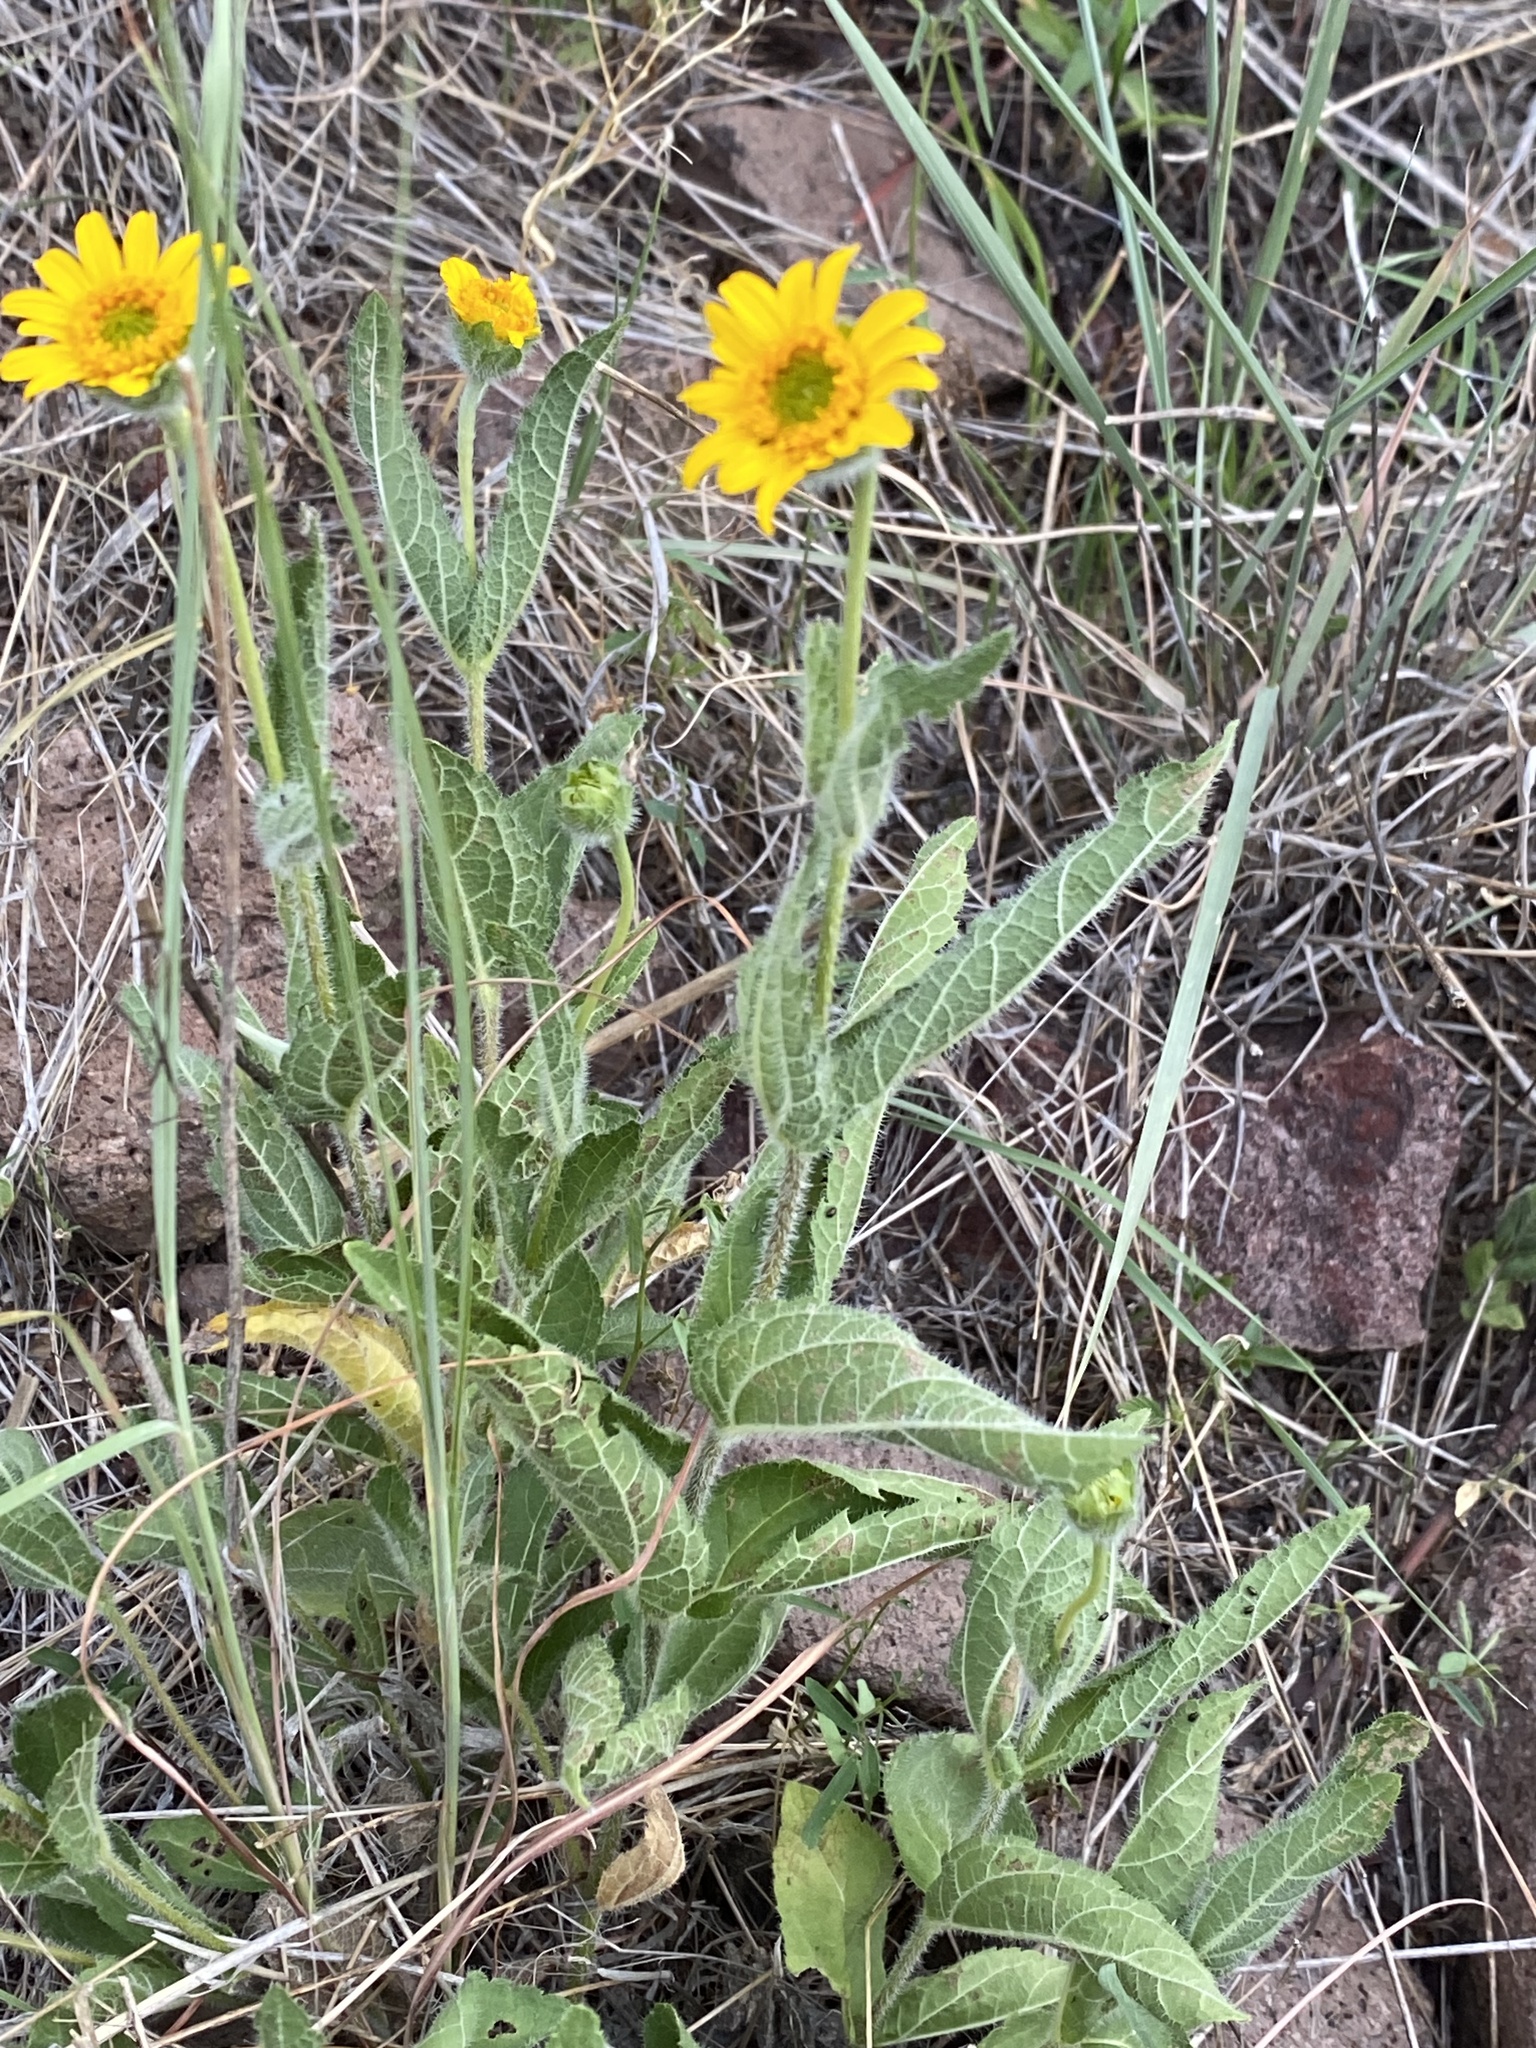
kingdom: Plantae
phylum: Tracheophyta
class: Magnoliopsida
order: Asterales
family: Asteraceae
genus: Lasianthaea
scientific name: Lasianthaea podocephala
